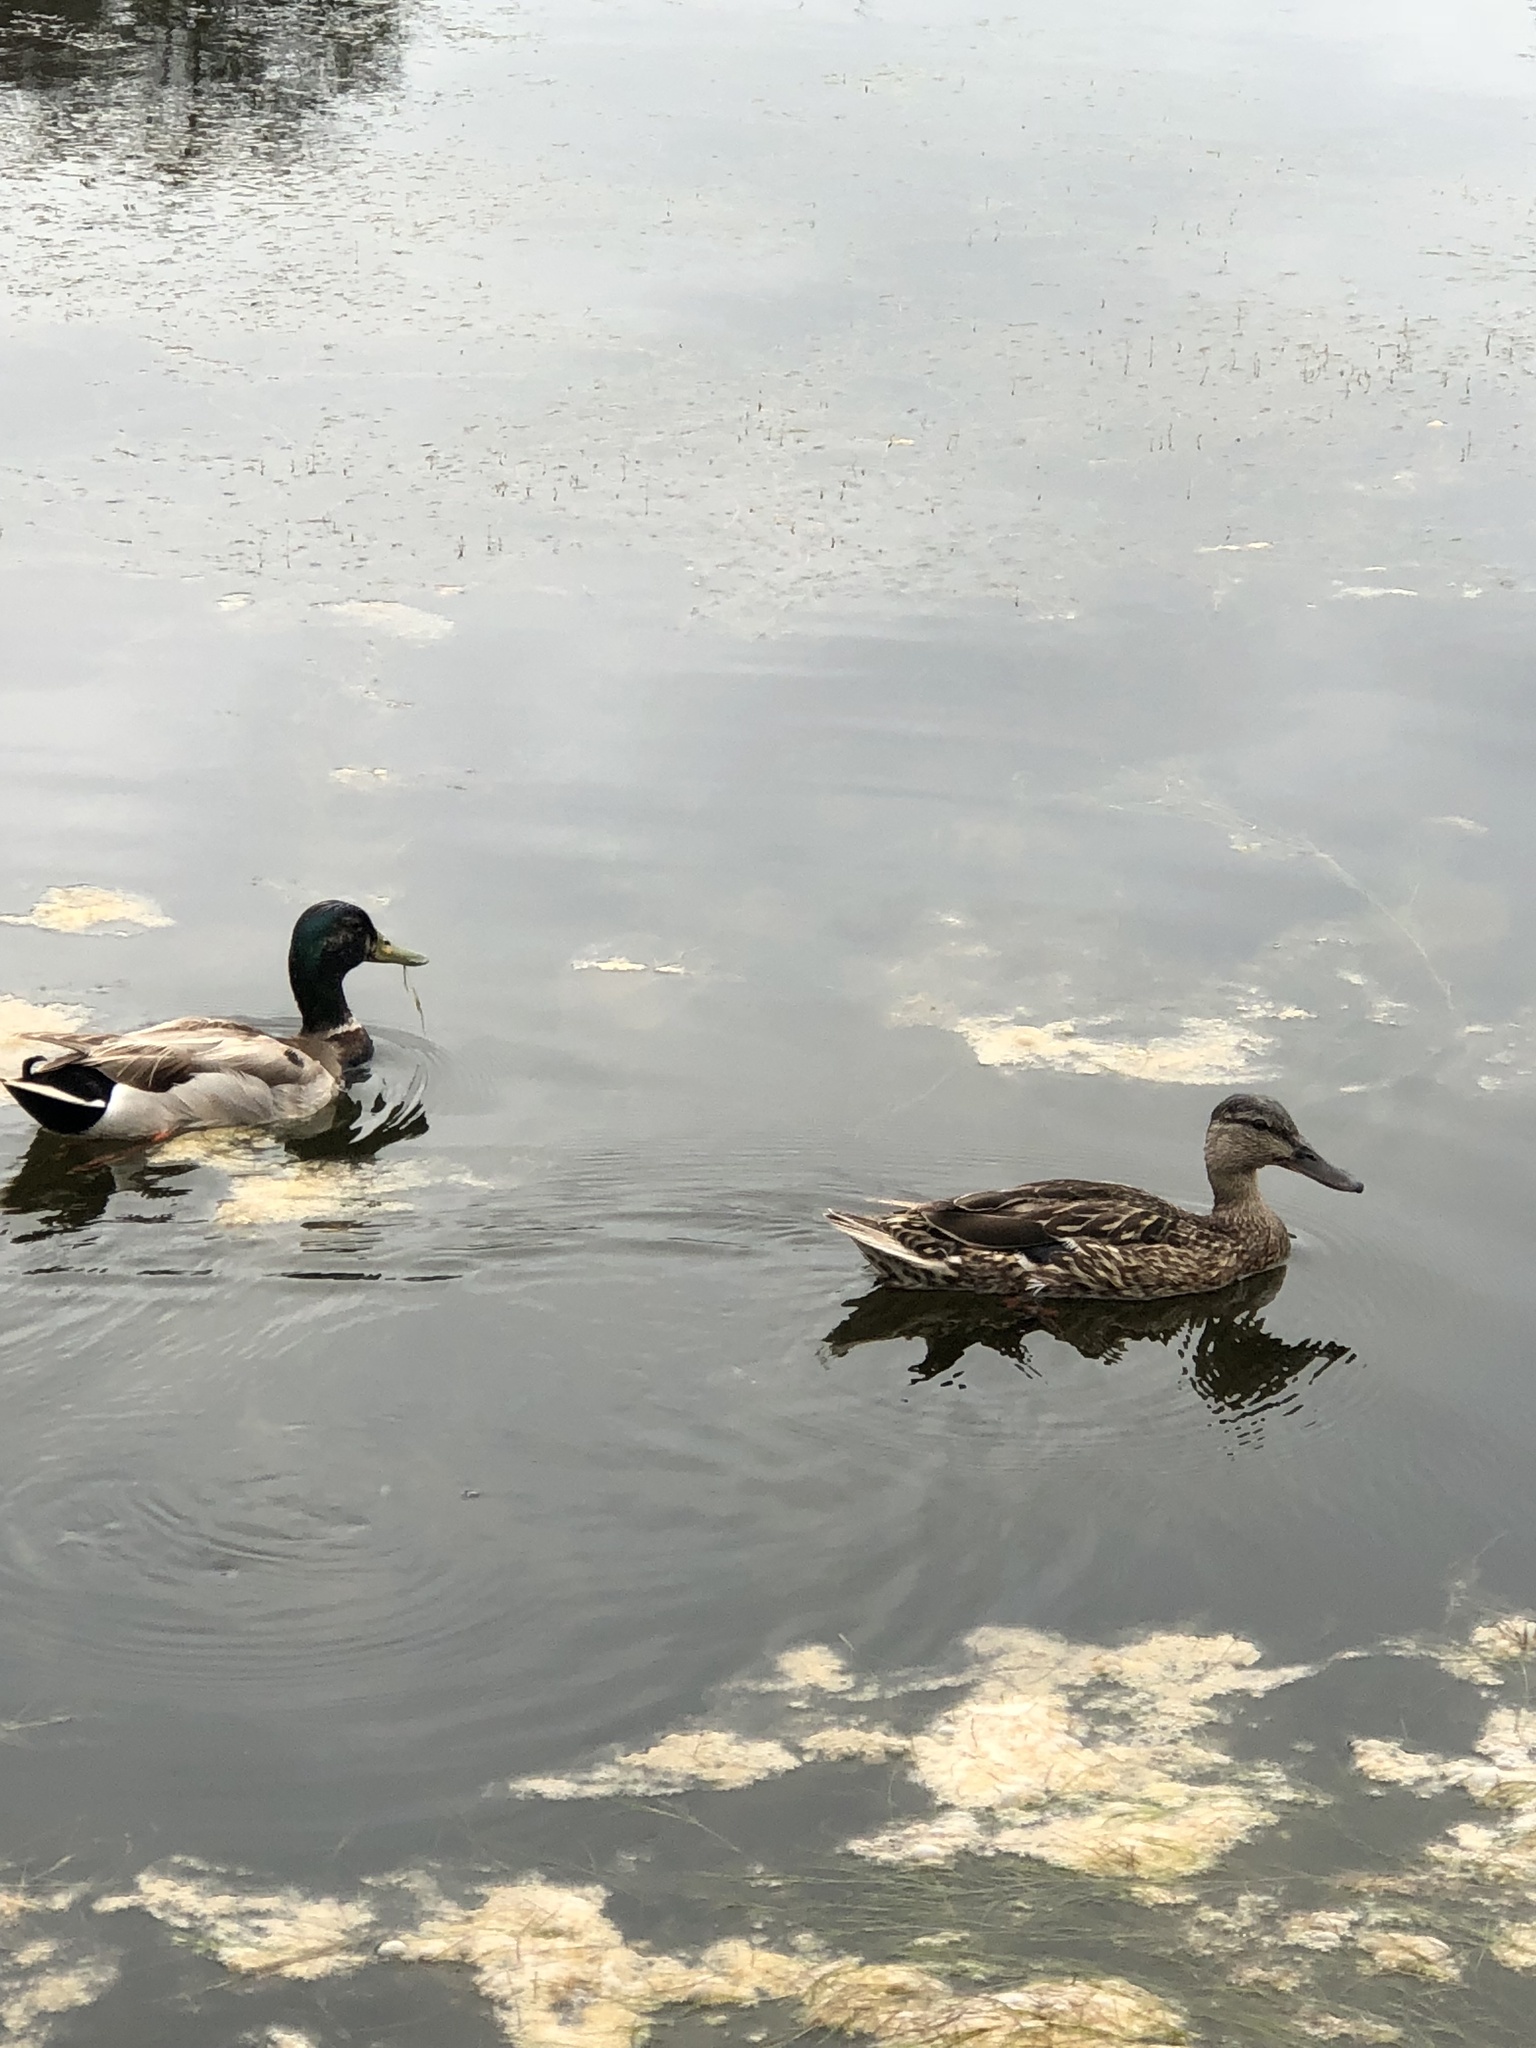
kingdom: Animalia
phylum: Chordata
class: Aves
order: Anseriformes
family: Anatidae
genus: Anas
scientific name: Anas platyrhynchos
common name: Mallard
